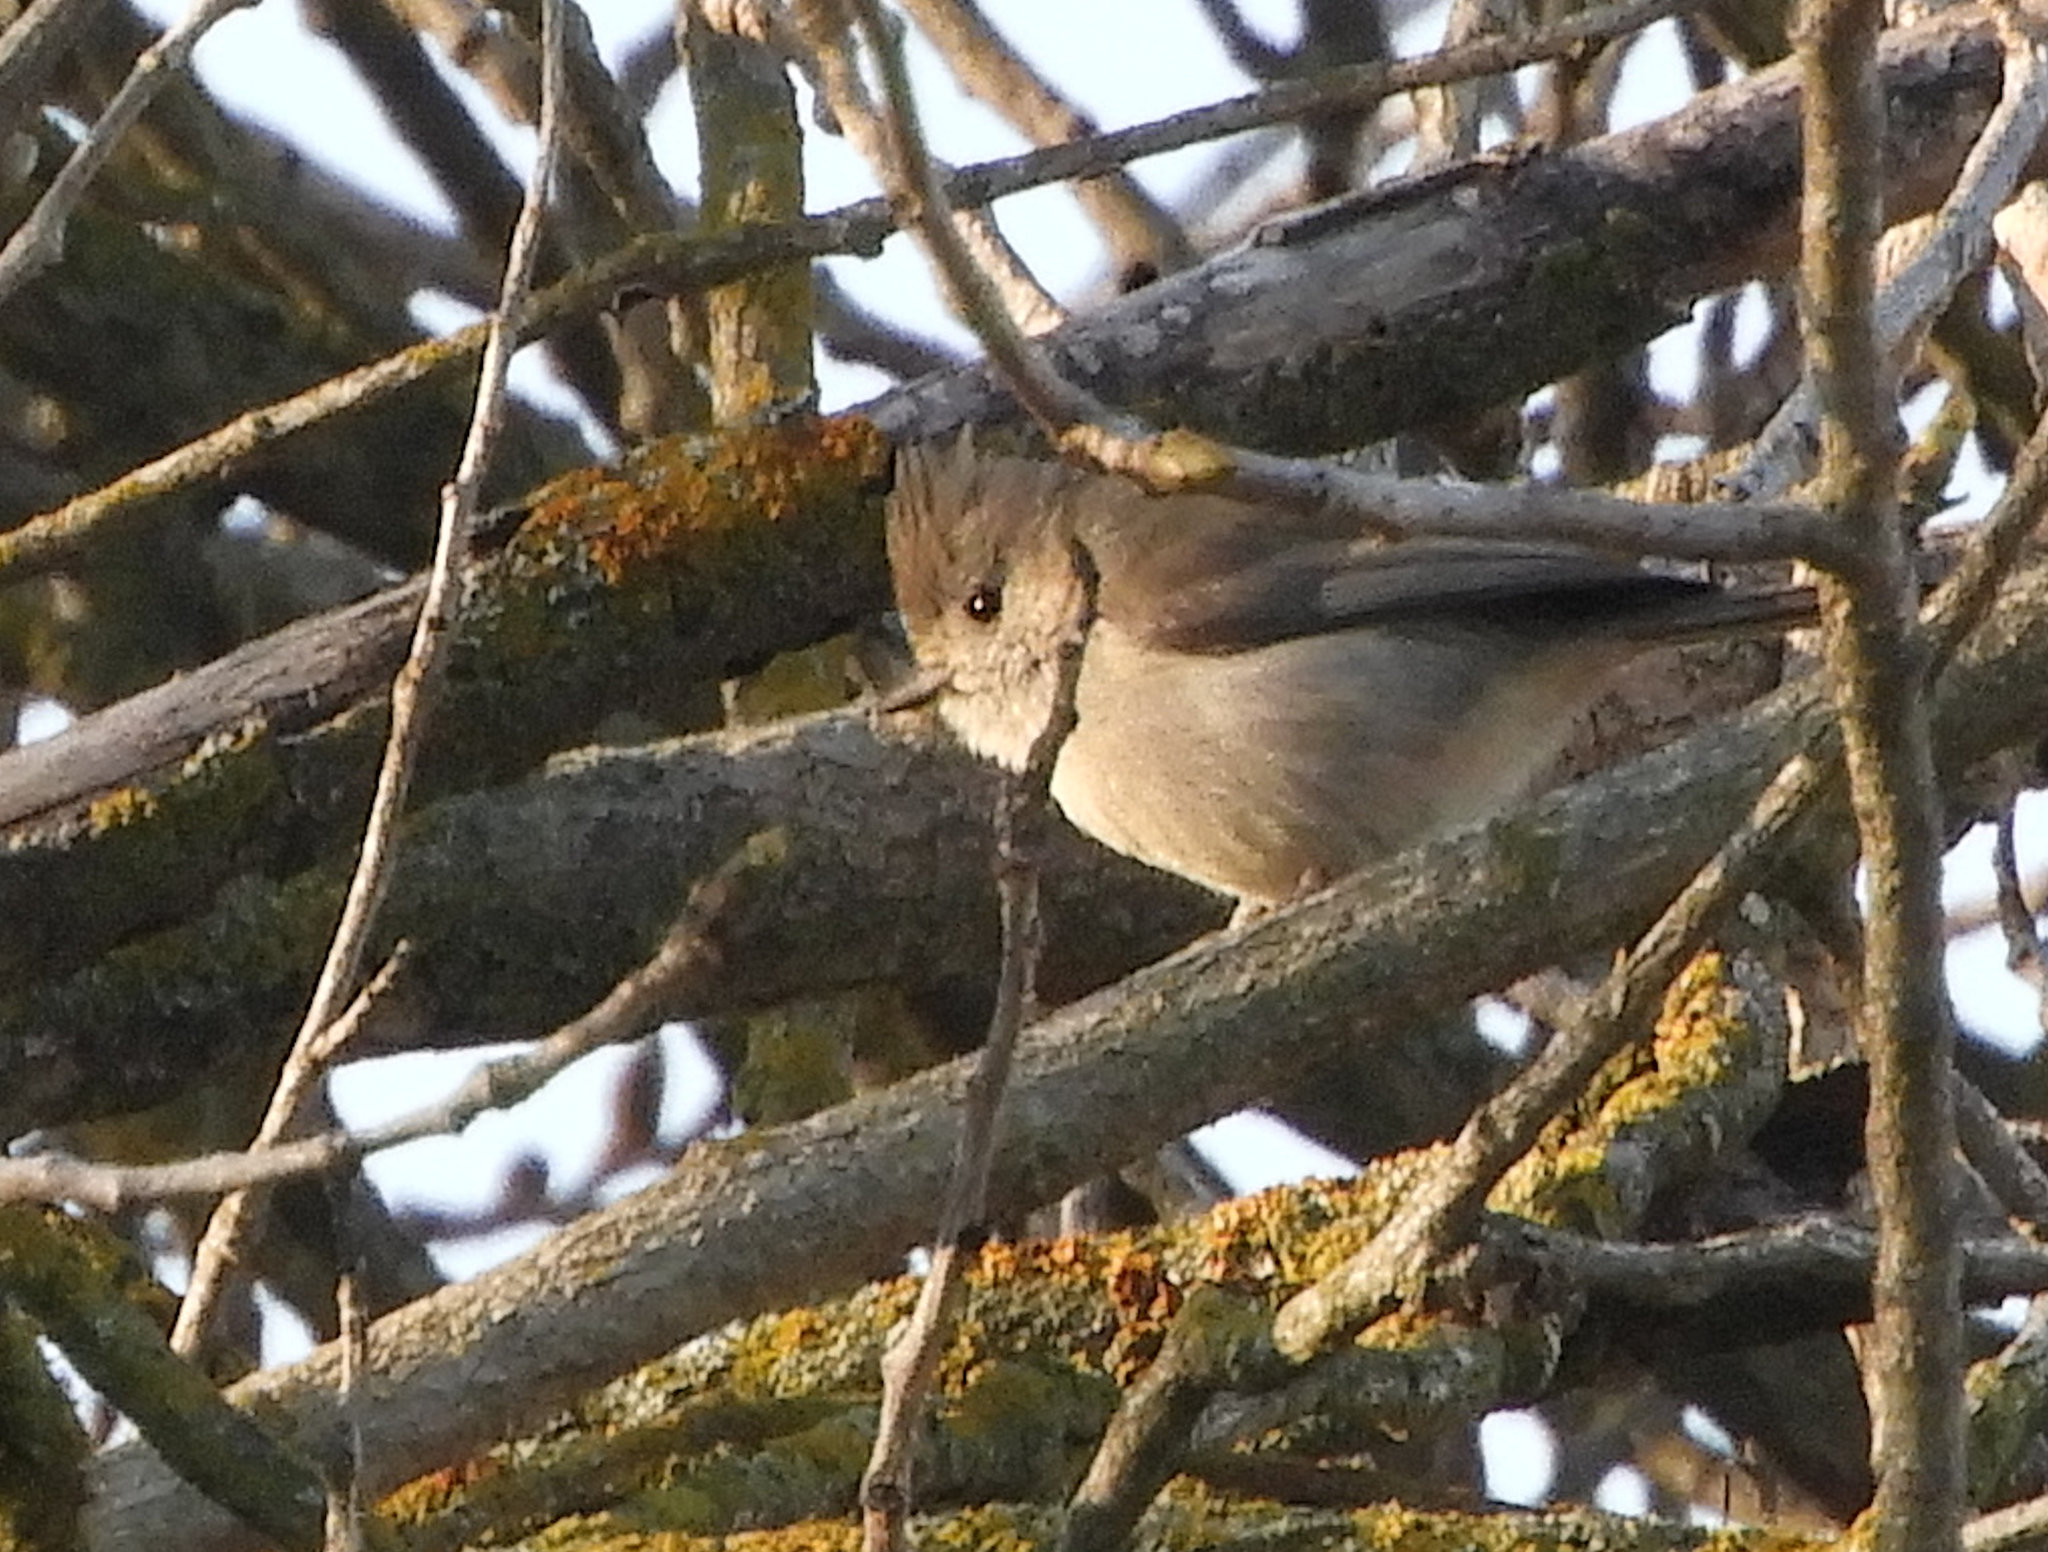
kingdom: Animalia
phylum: Chordata
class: Aves
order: Passeriformes
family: Paridae
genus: Baeolophus
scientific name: Baeolophus inornatus
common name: Oak titmouse
